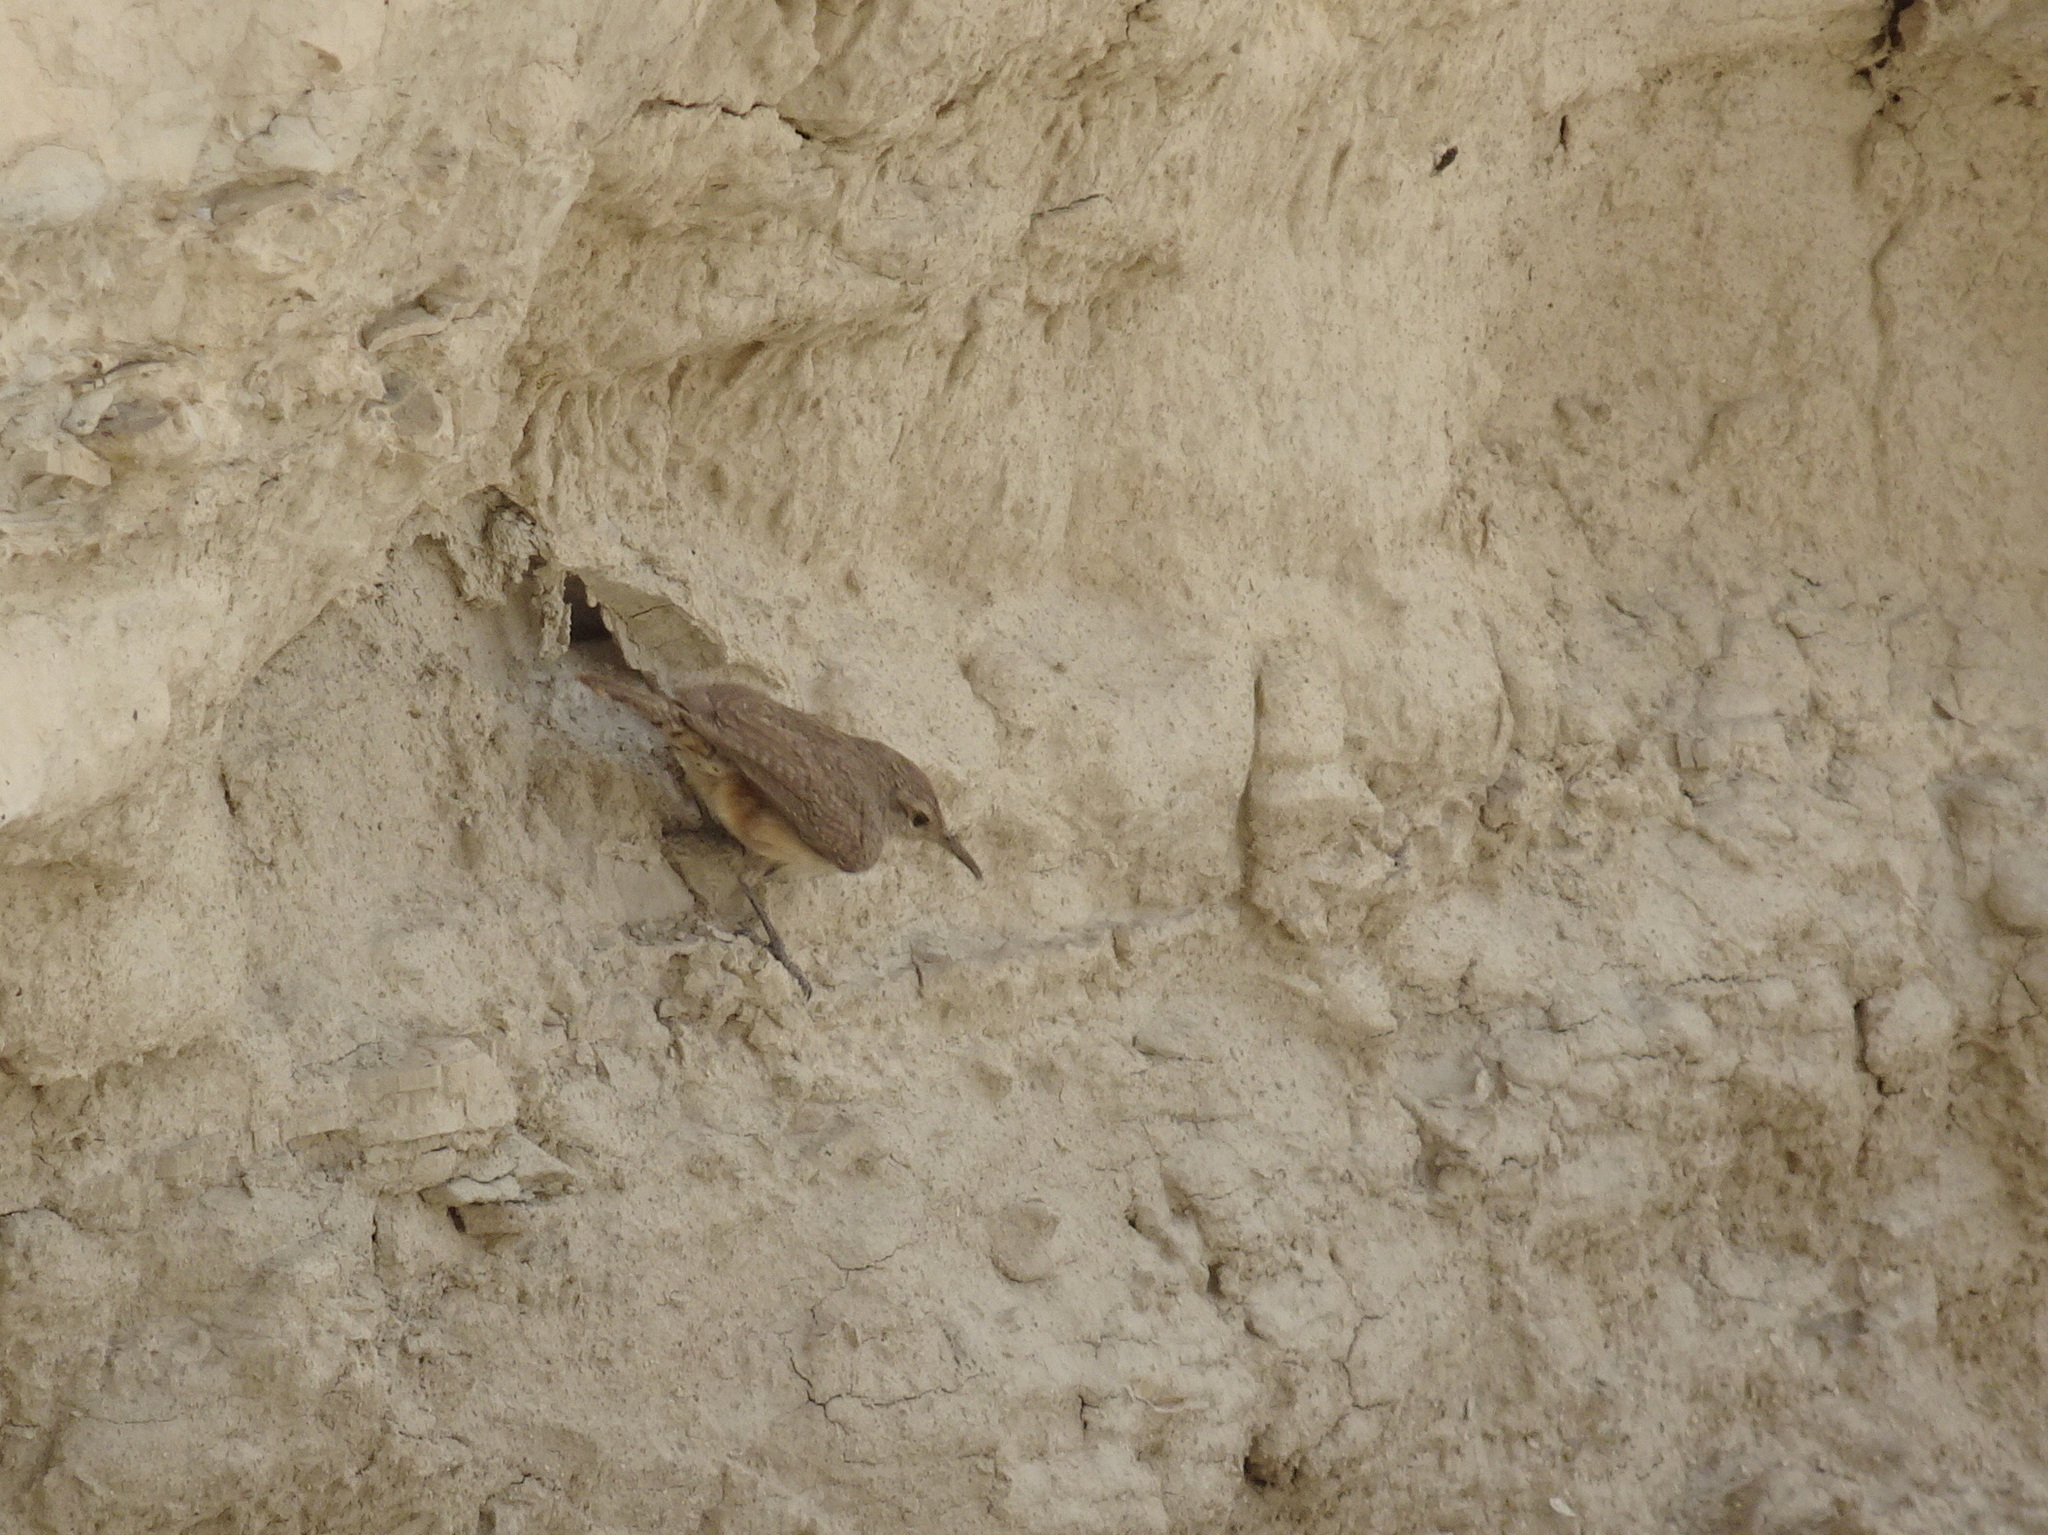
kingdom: Animalia
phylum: Chordata
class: Aves
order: Passeriformes
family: Troglodytidae
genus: Salpinctes
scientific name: Salpinctes obsoletus
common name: Rock wren
